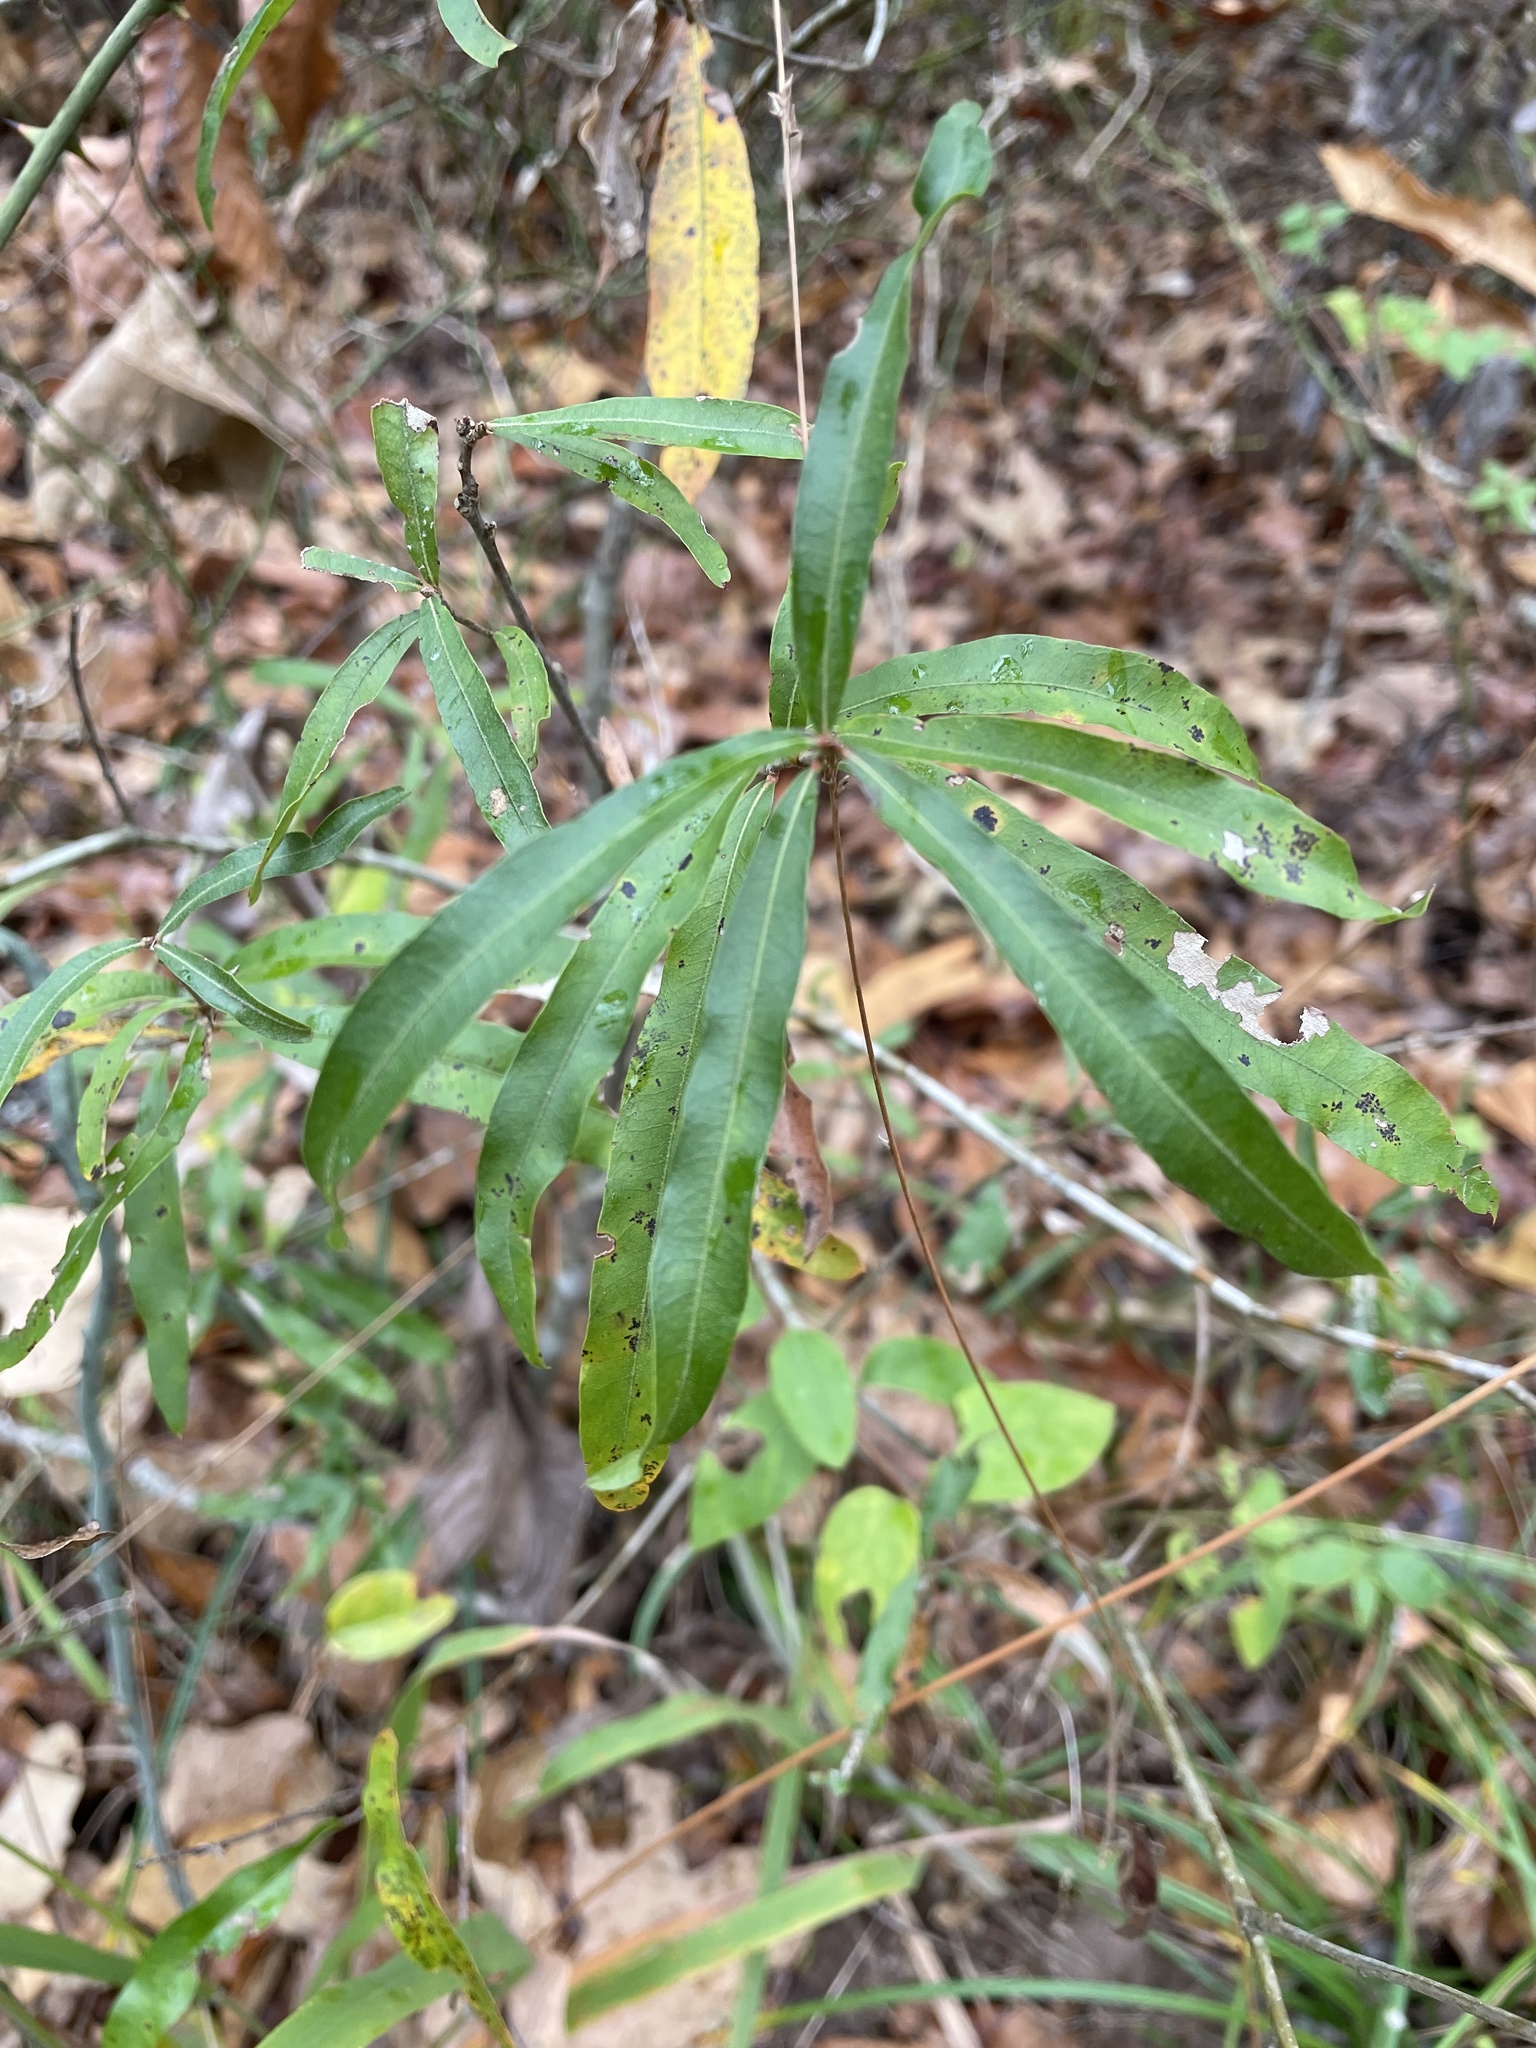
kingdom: Plantae
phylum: Tracheophyta
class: Magnoliopsida
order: Fagales
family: Fagaceae
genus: Quercus
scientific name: Quercus phellos
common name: Willow oak
